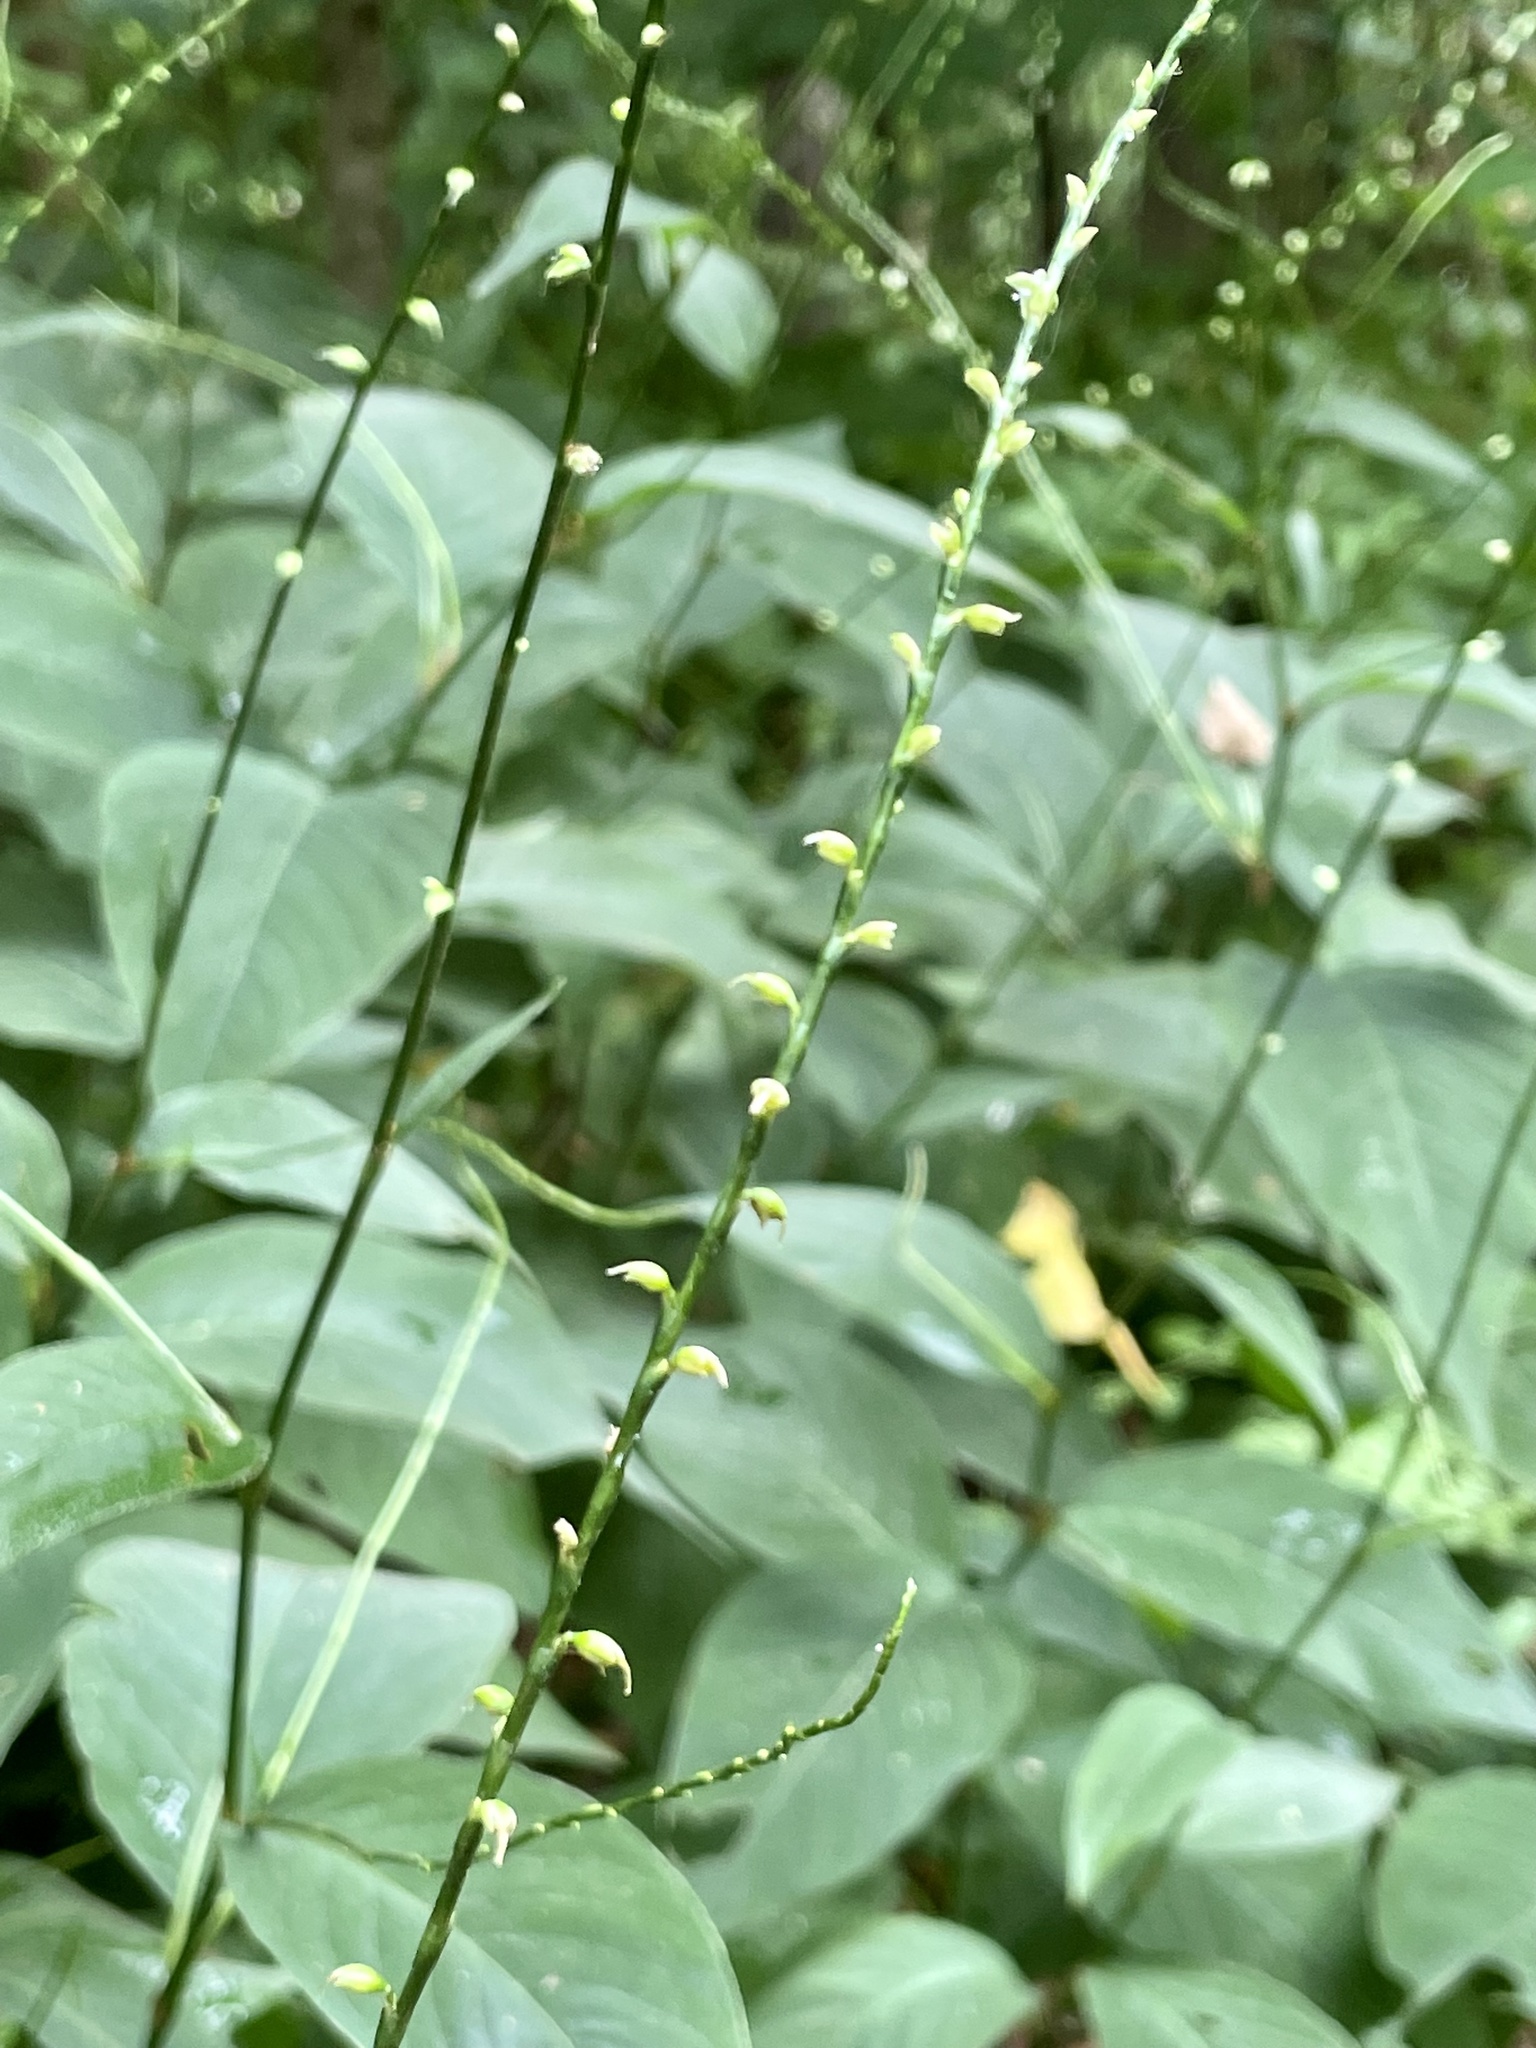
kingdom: Plantae
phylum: Tracheophyta
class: Magnoliopsida
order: Caryophyllales
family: Polygonaceae
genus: Persicaria
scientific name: Persicaria virginiana
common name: Jumpseed
